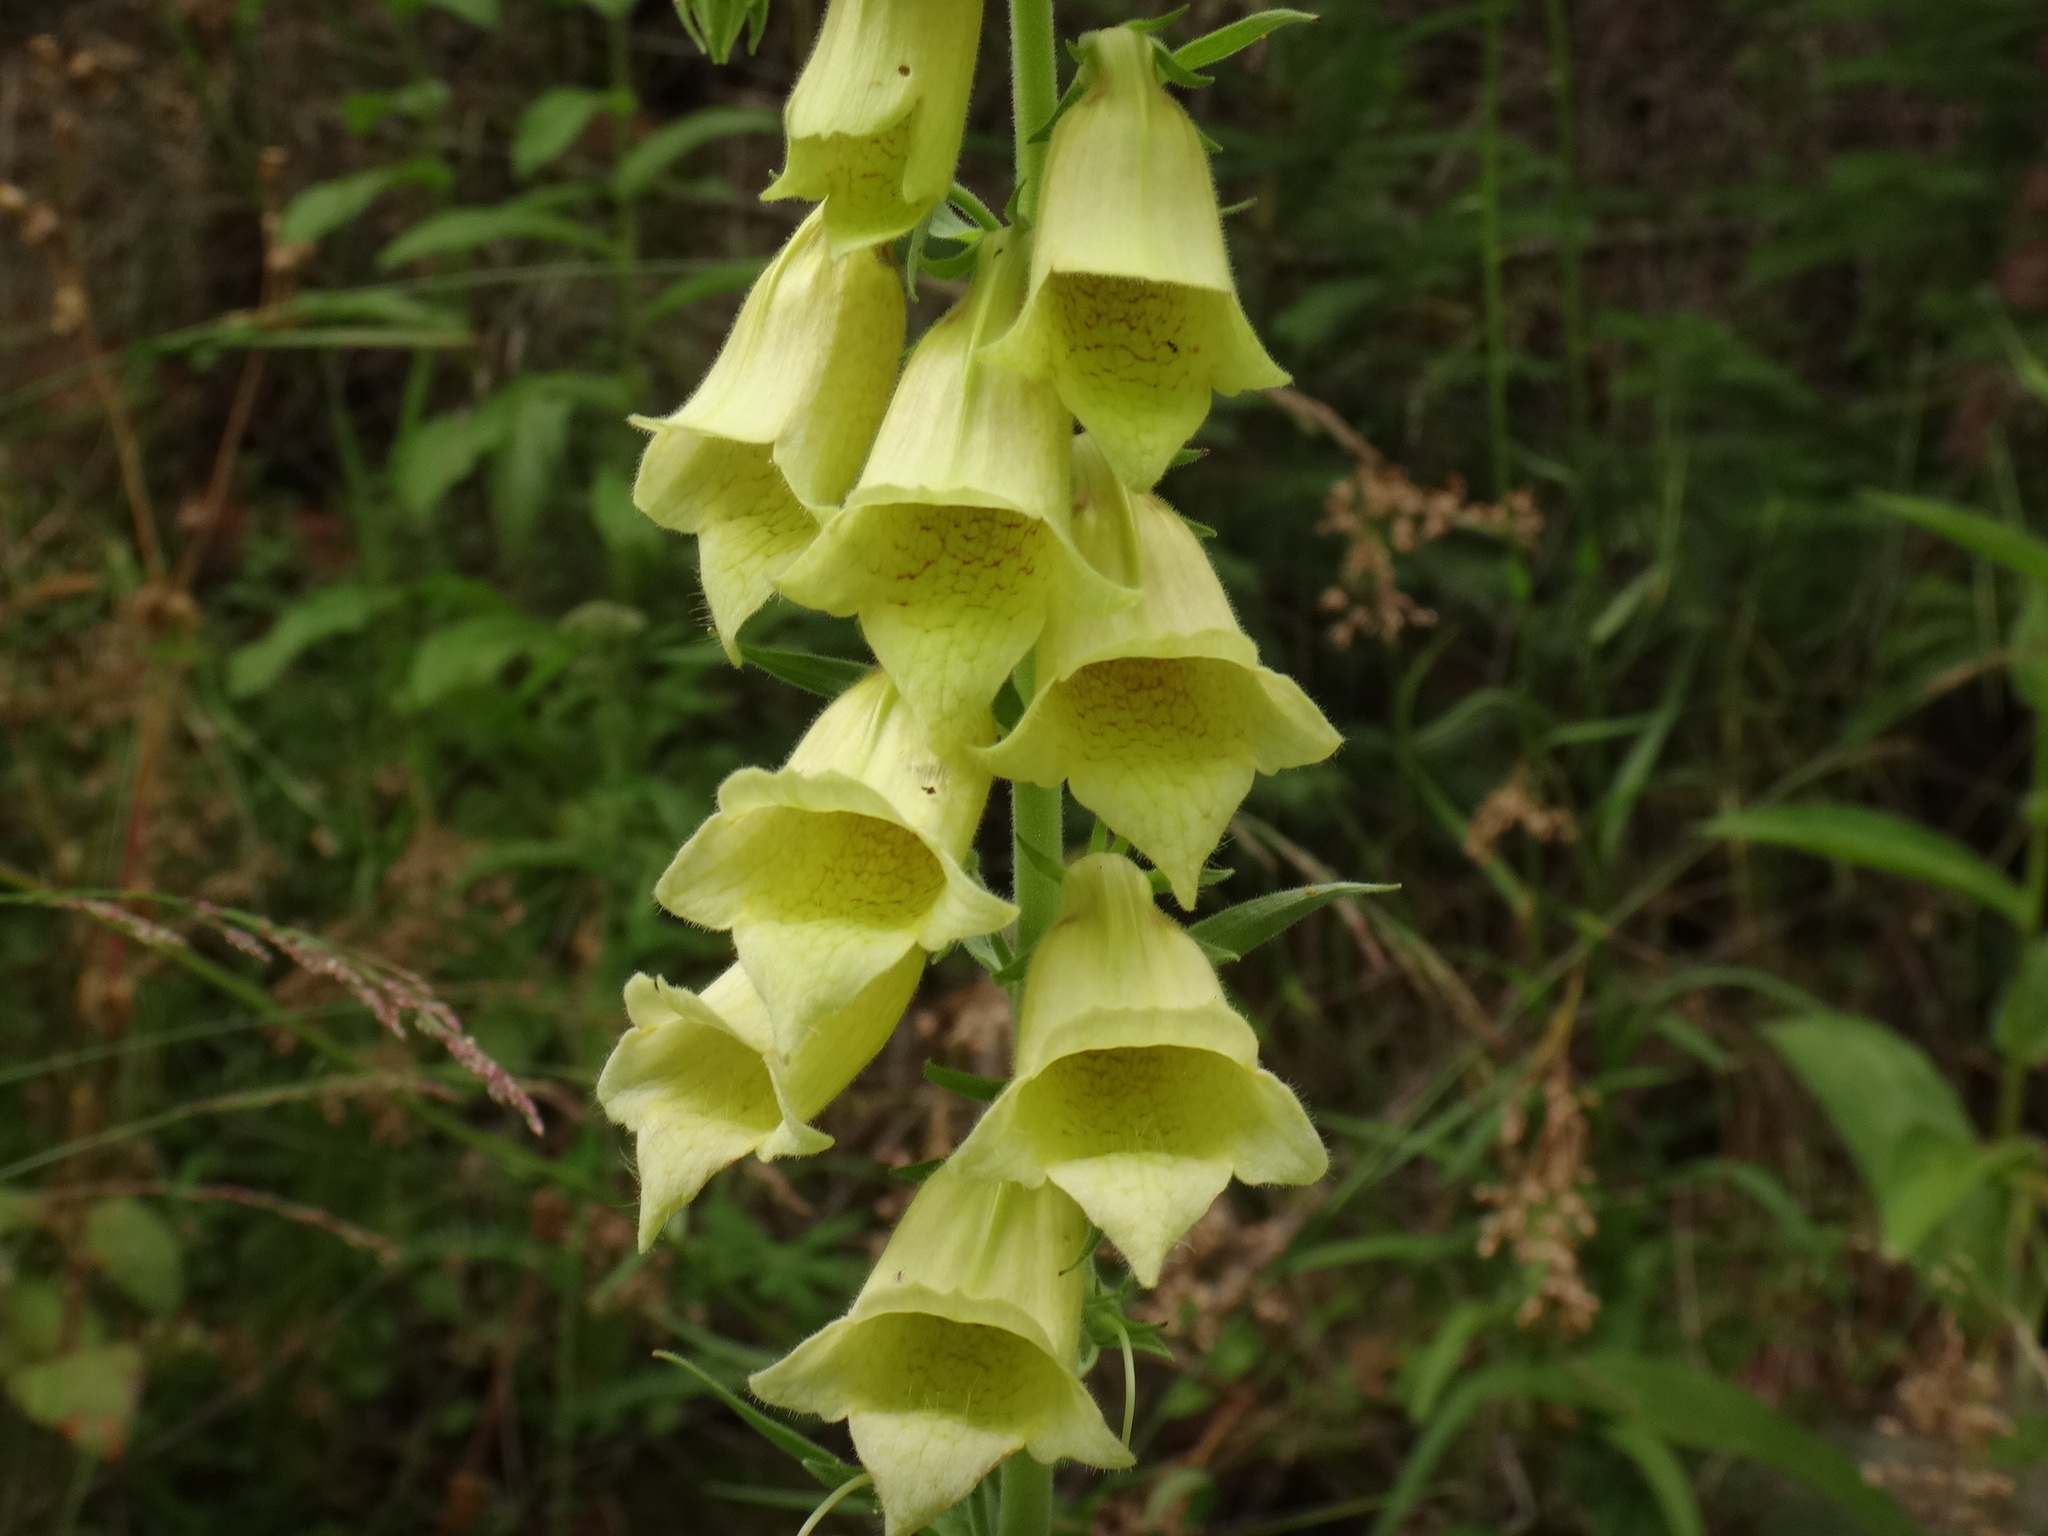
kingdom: Plantae
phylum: Tracheophyta
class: Magnoliopsida
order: Lamiales
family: Plantaginaceae
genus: Digitalis
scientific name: Digitalis grandiflora
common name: Yellow foxglove
